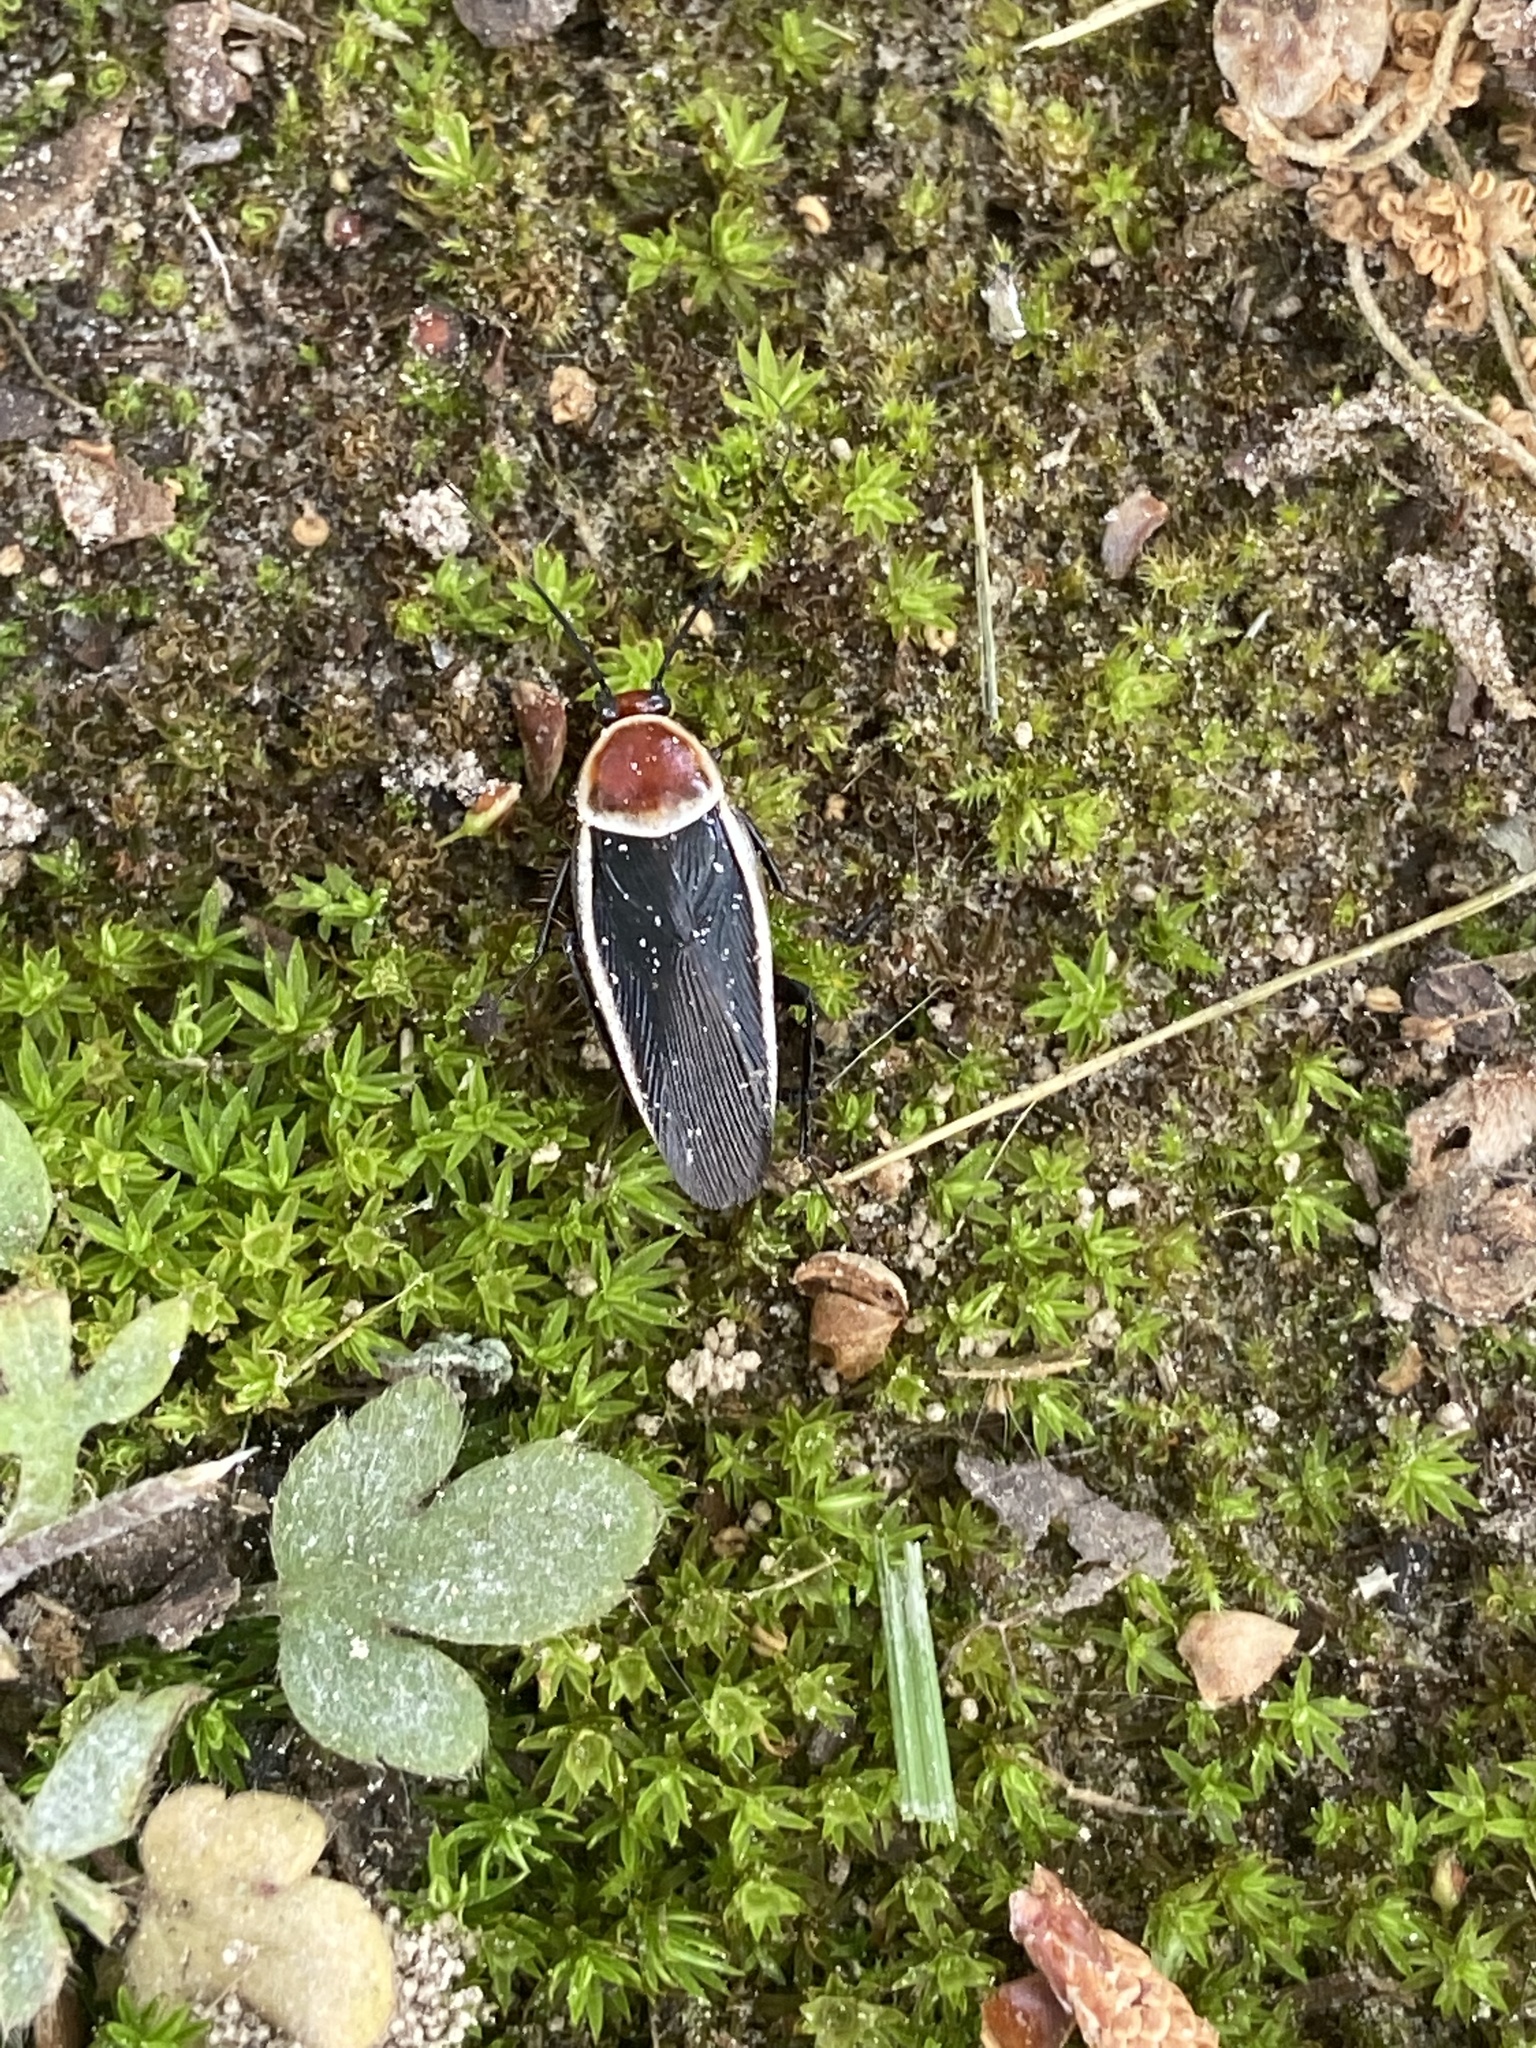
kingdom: Animalia
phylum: Arthropoda
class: Insecta
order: Blattodea
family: Ectobiidae
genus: Pseudomops
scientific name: Pseudomops septentrionalis
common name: Pale-bordered field cockroach
